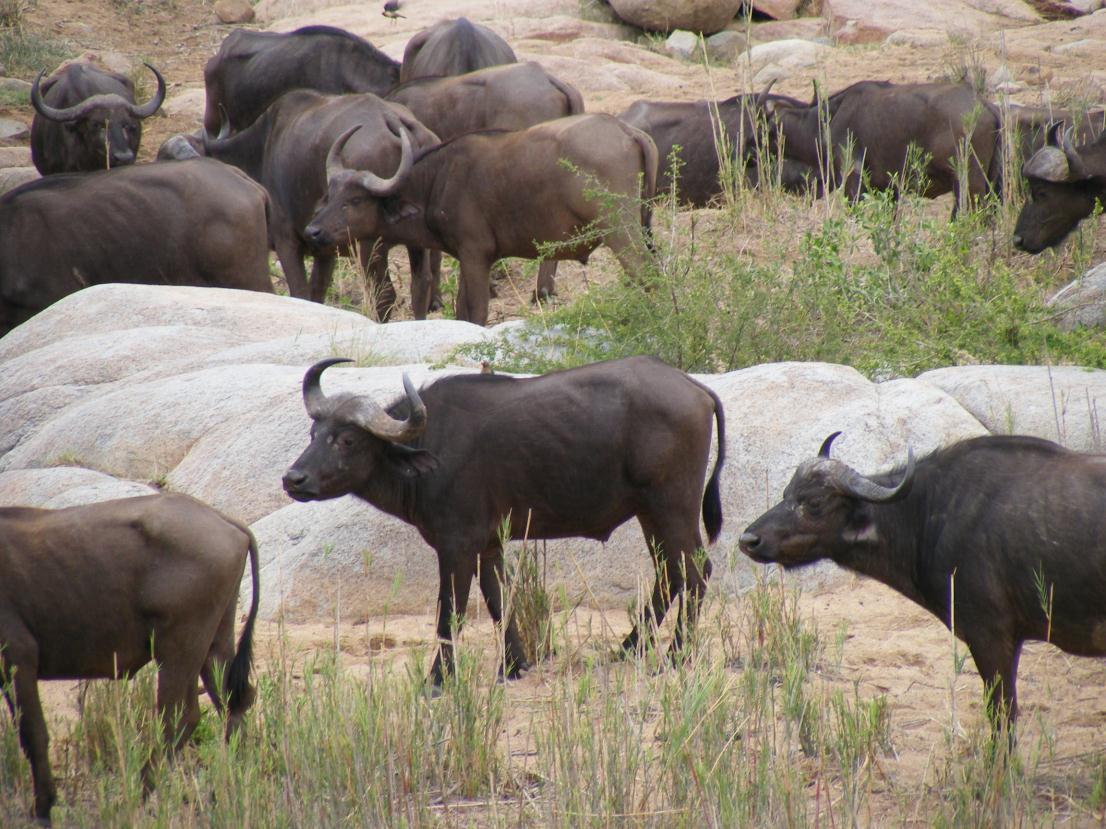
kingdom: Animalia
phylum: Chordata
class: Mammalia
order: Artiodactyla
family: Bovidae
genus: Syncerus
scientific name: Syncerus caffer
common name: African buffalo
